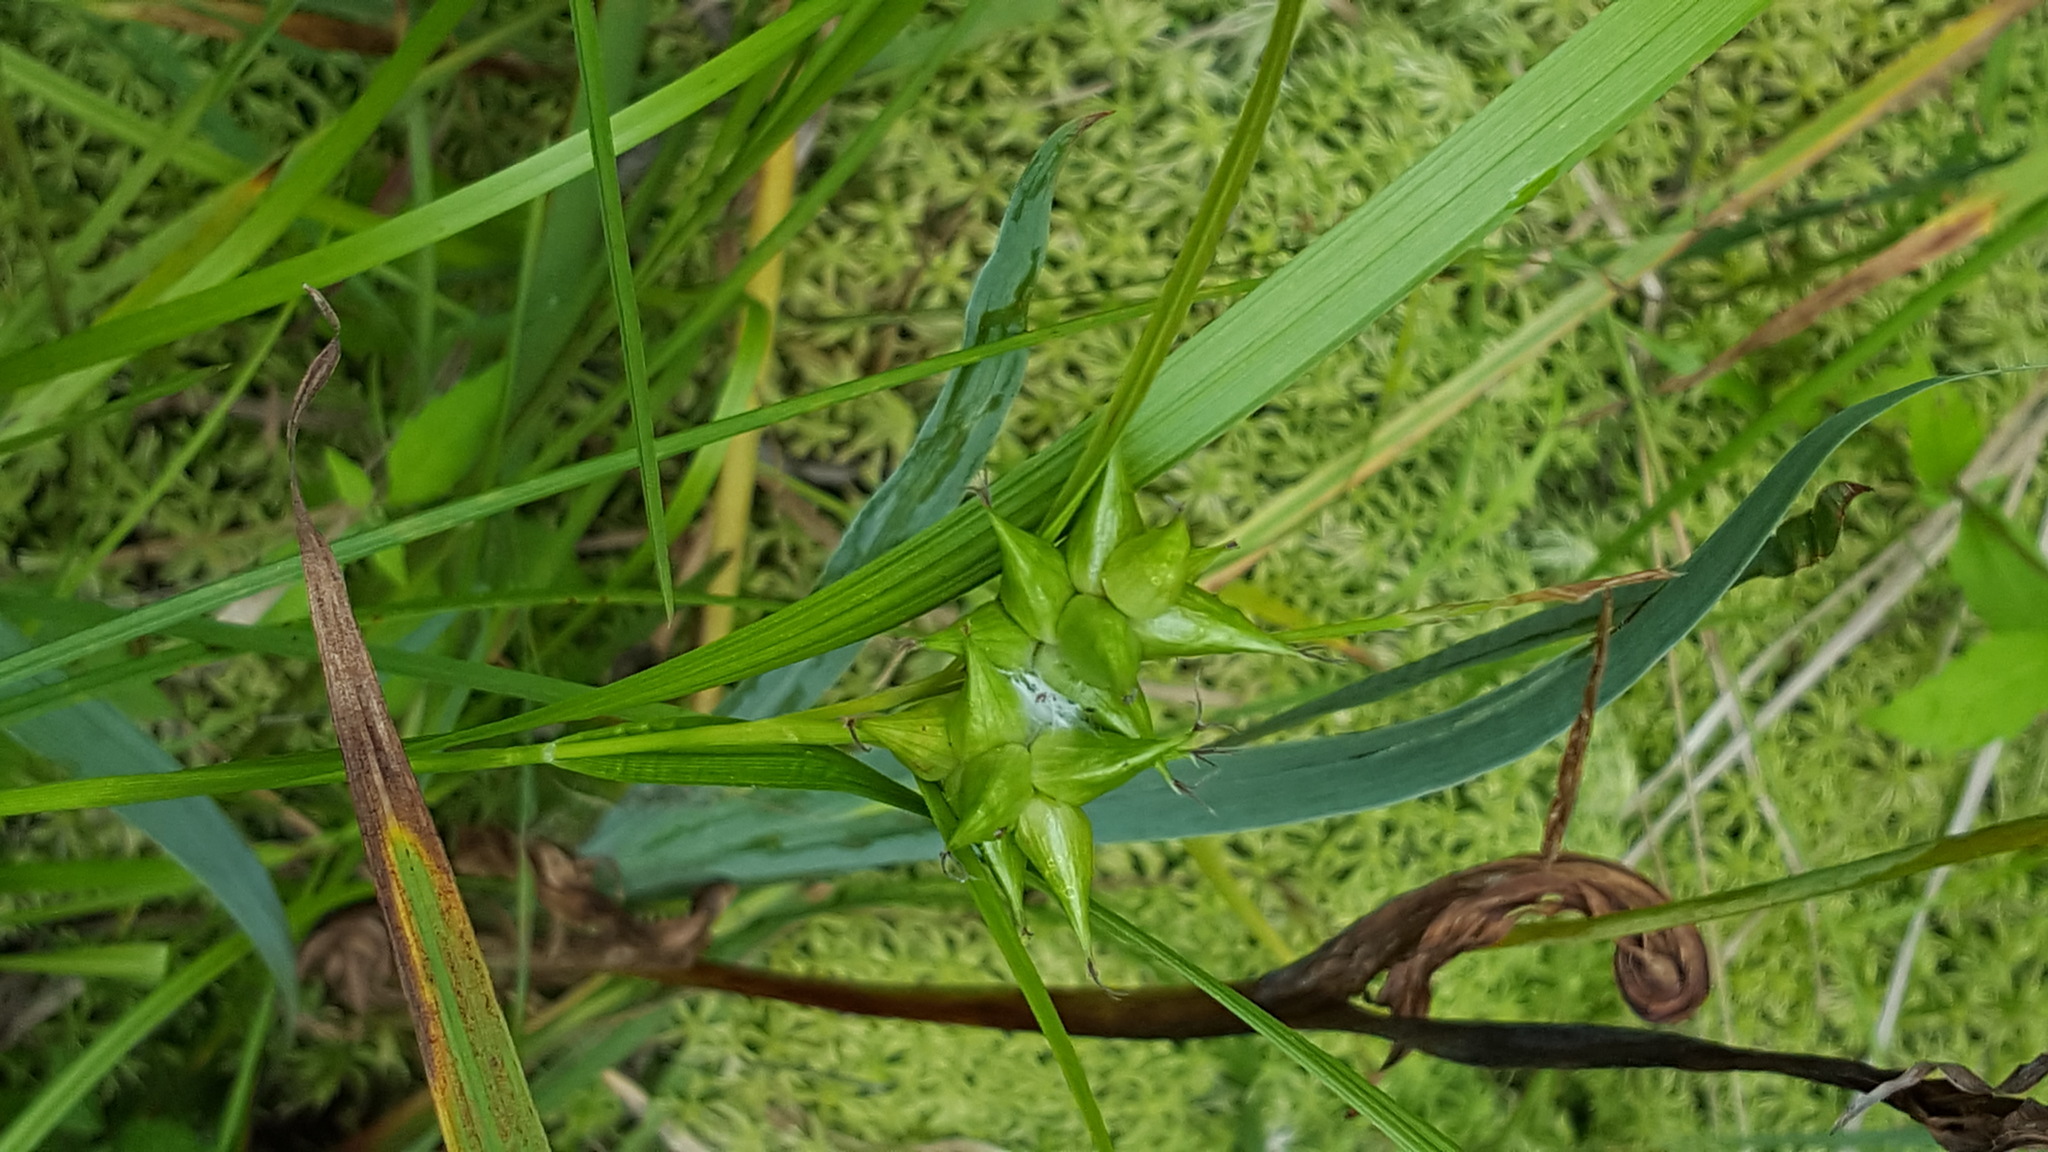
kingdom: Plantae
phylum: Tracheophyta
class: Liliopsida
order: Poales
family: Cyperaceae
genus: Carex
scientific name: Carex intumescens
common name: Greater bladder sedge
